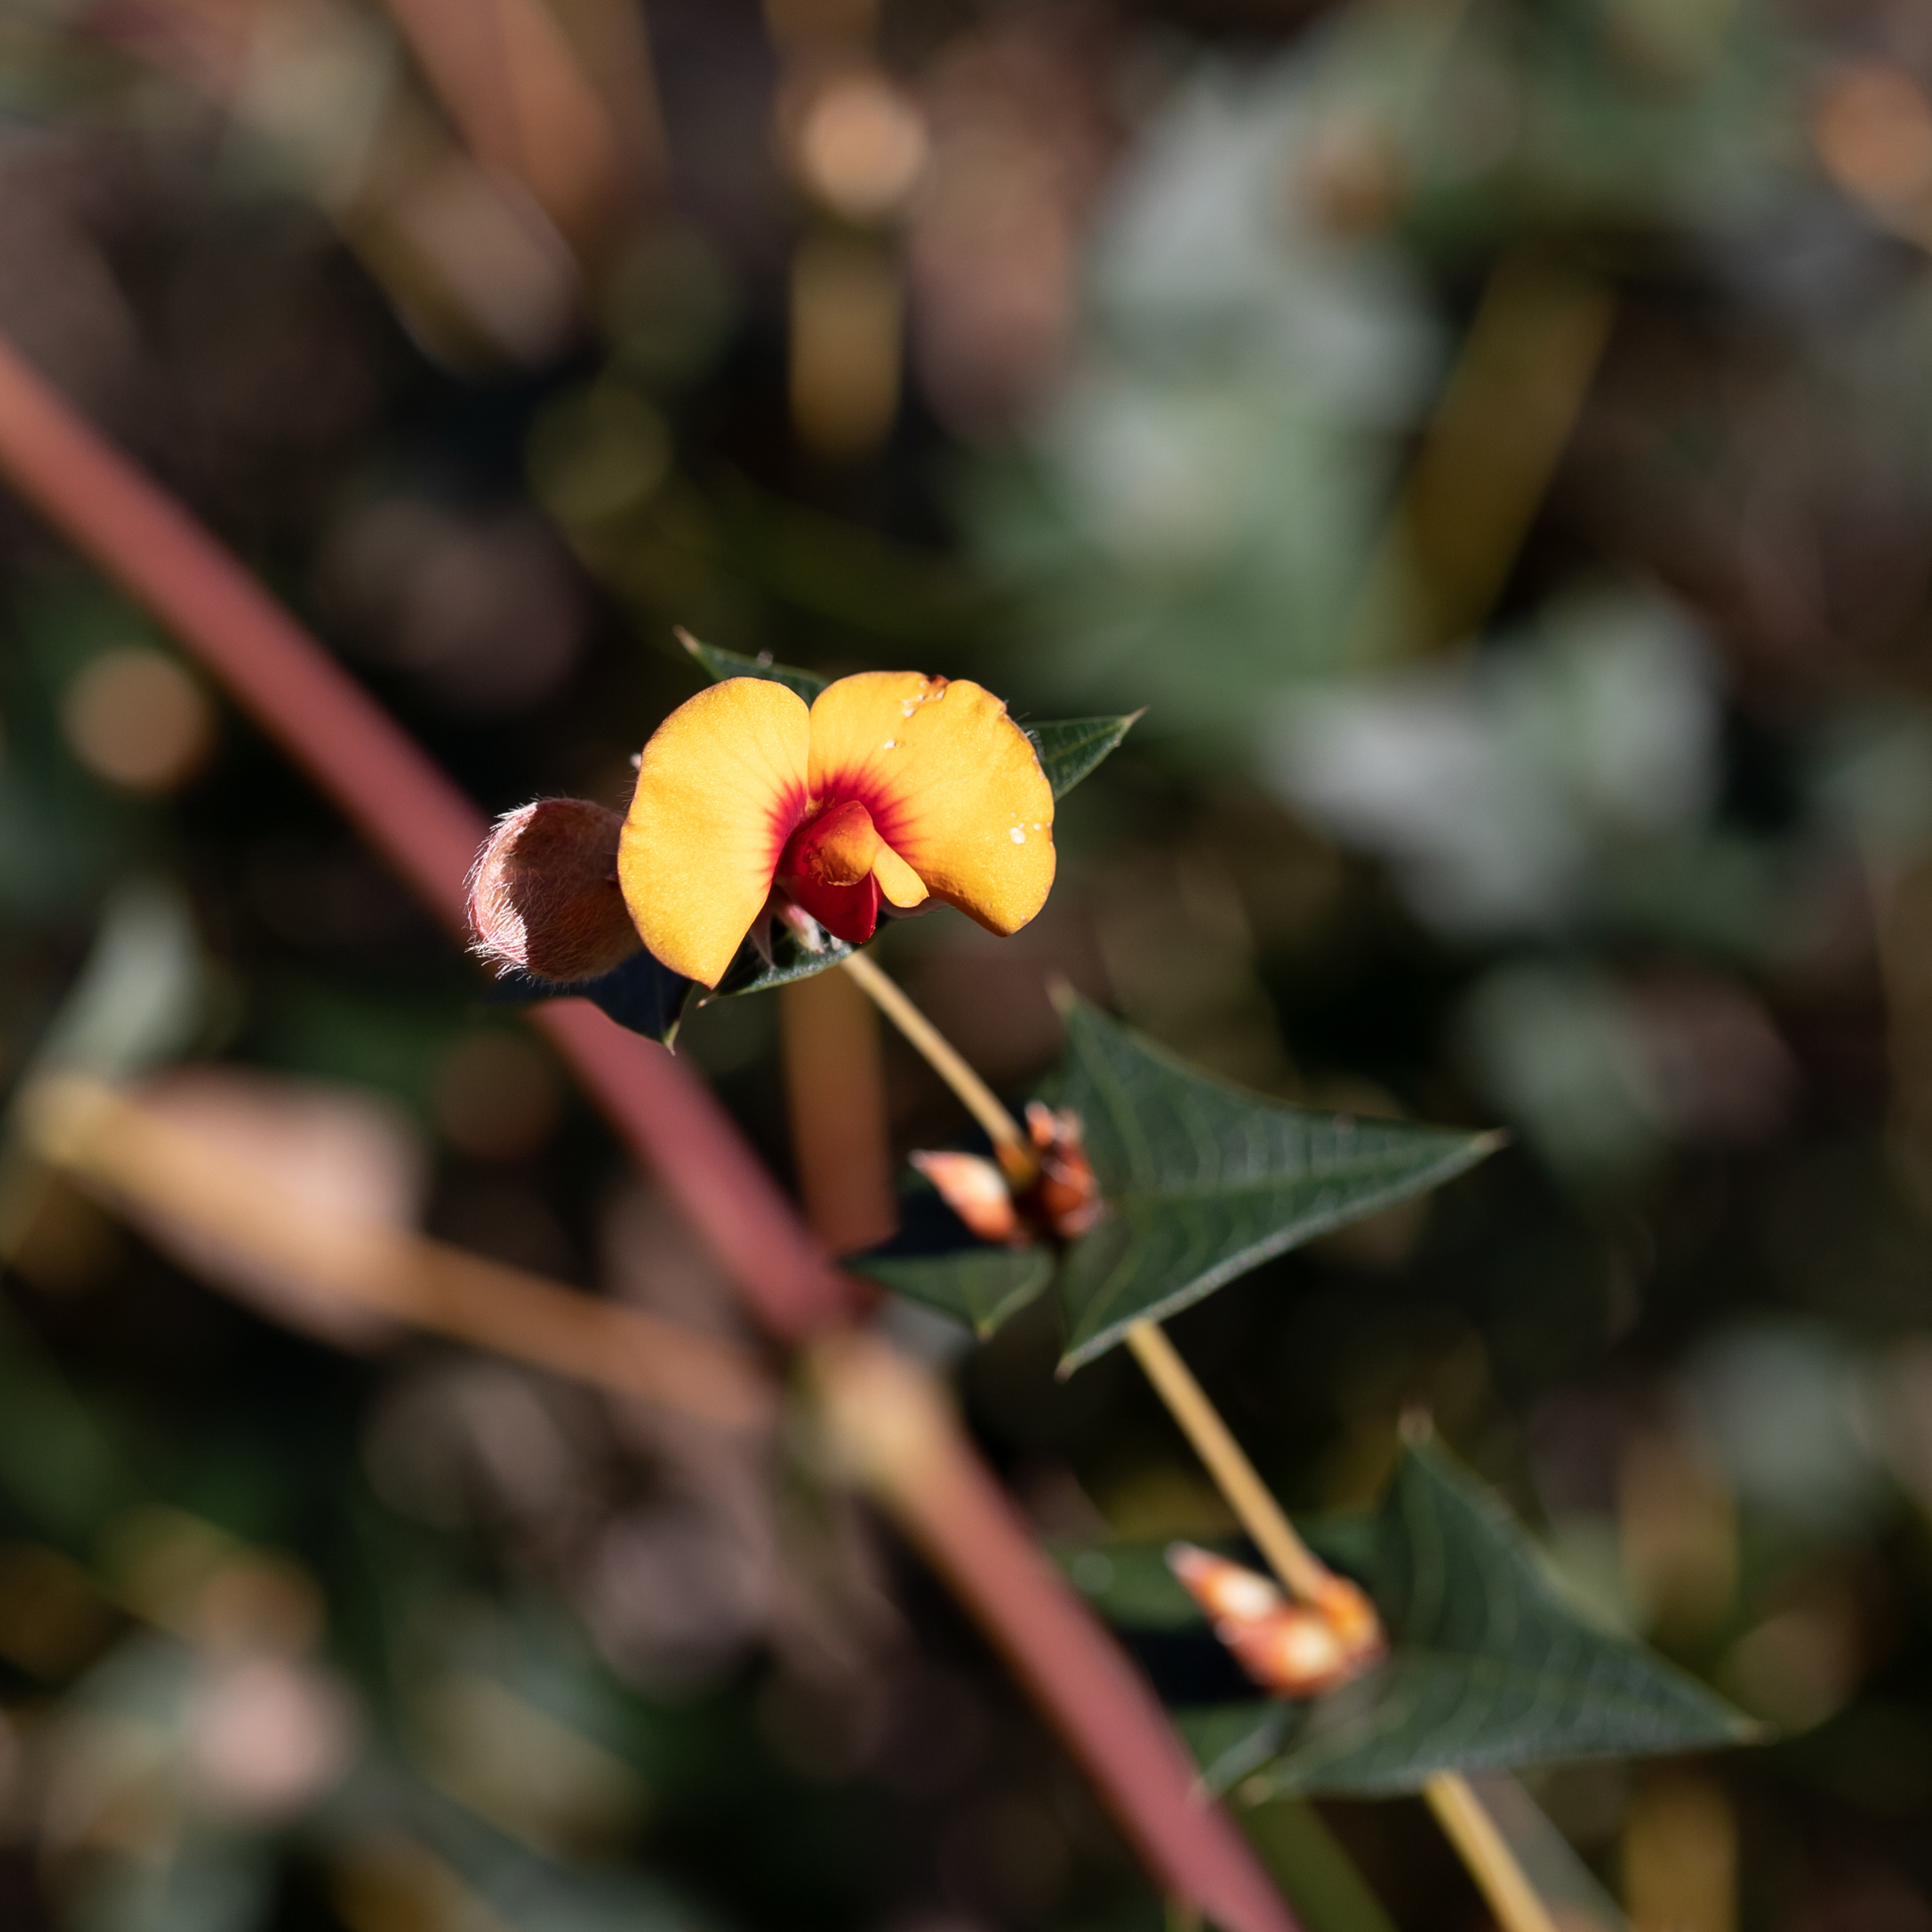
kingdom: Plantae
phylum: Tracheophyta
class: Magnoliopsida
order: Fabales
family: Fabaceae
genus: Platylobium
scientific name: Platylobium obtusangulum
